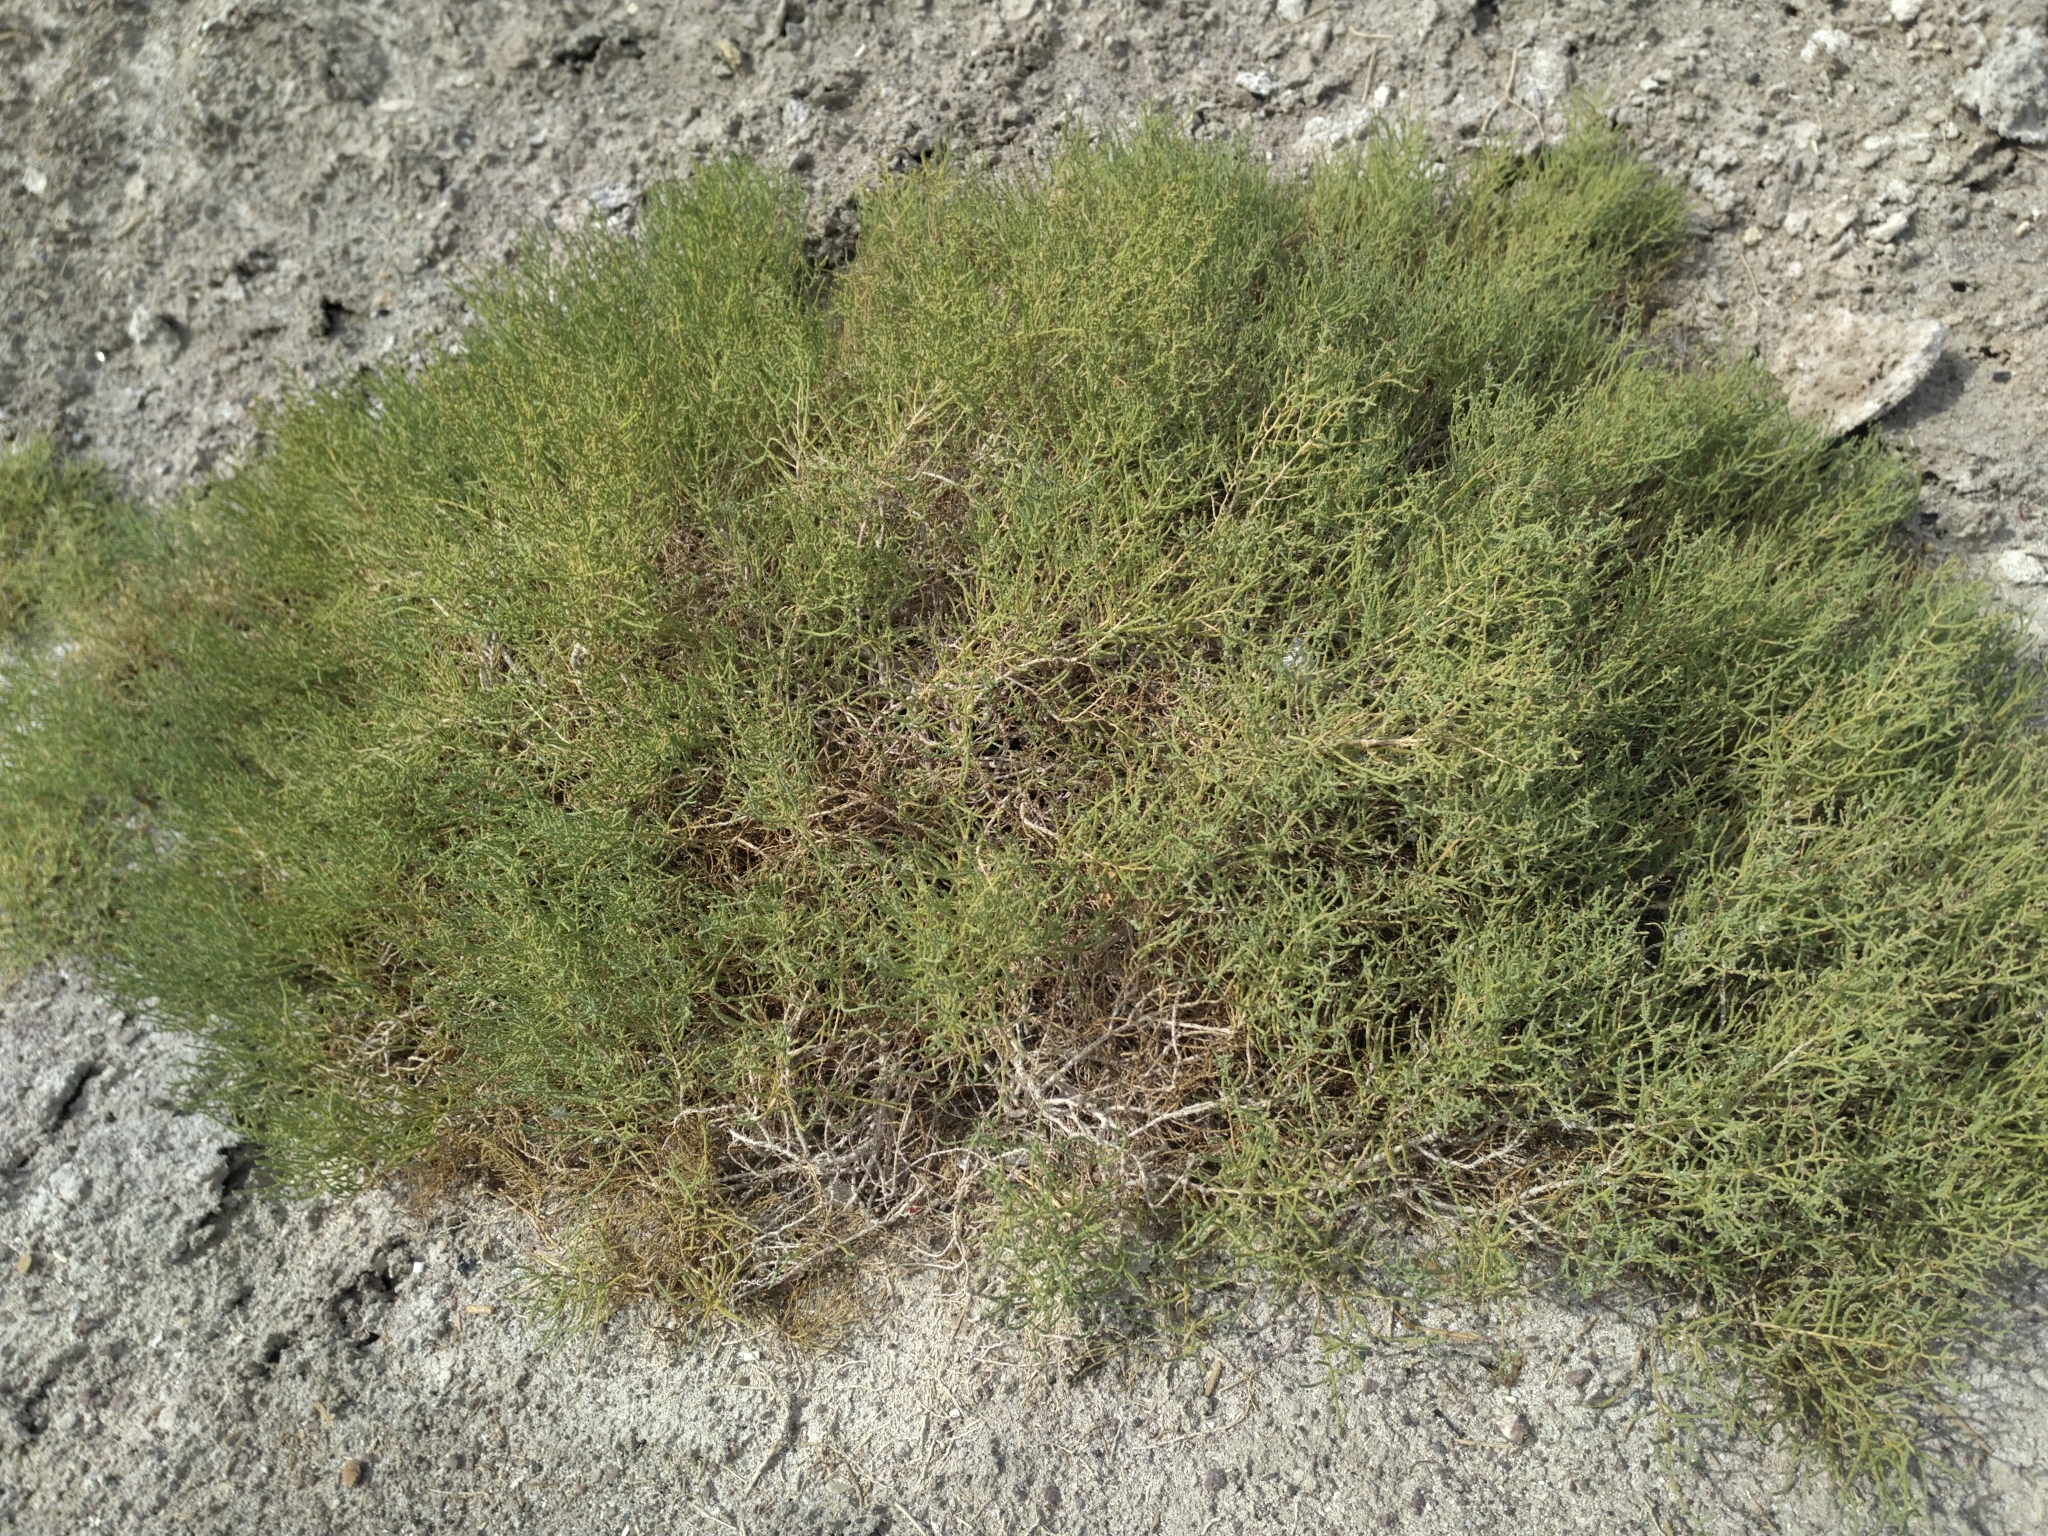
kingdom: Plantae
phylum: Tracheophyta
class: Magnoliopsida
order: Caryophyllales
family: Amaranthaceae
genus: Allenrolfea
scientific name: Allenrolfea occidentalis
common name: Iodine-bush
